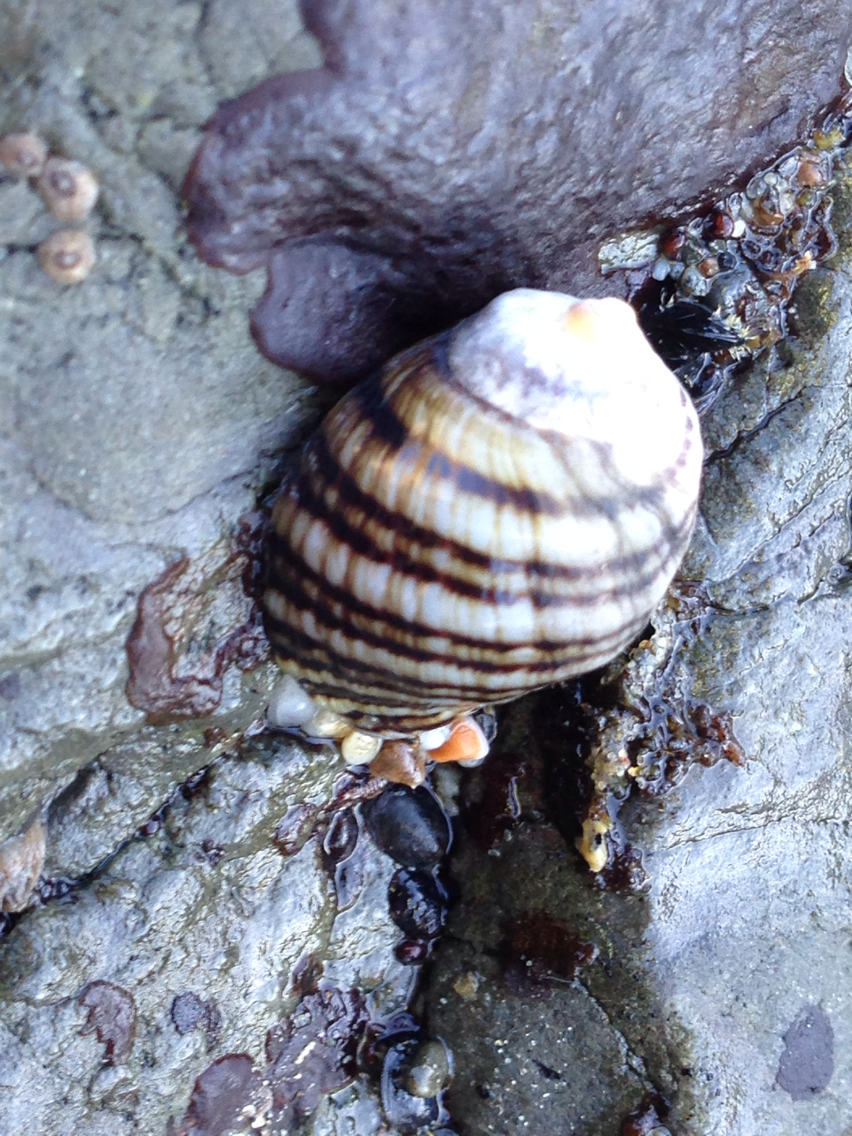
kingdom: Animalia
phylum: Mollusca
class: Gastropoda
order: Neogastropoda
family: Muricidae
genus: Nucella
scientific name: Nucella ostrina
